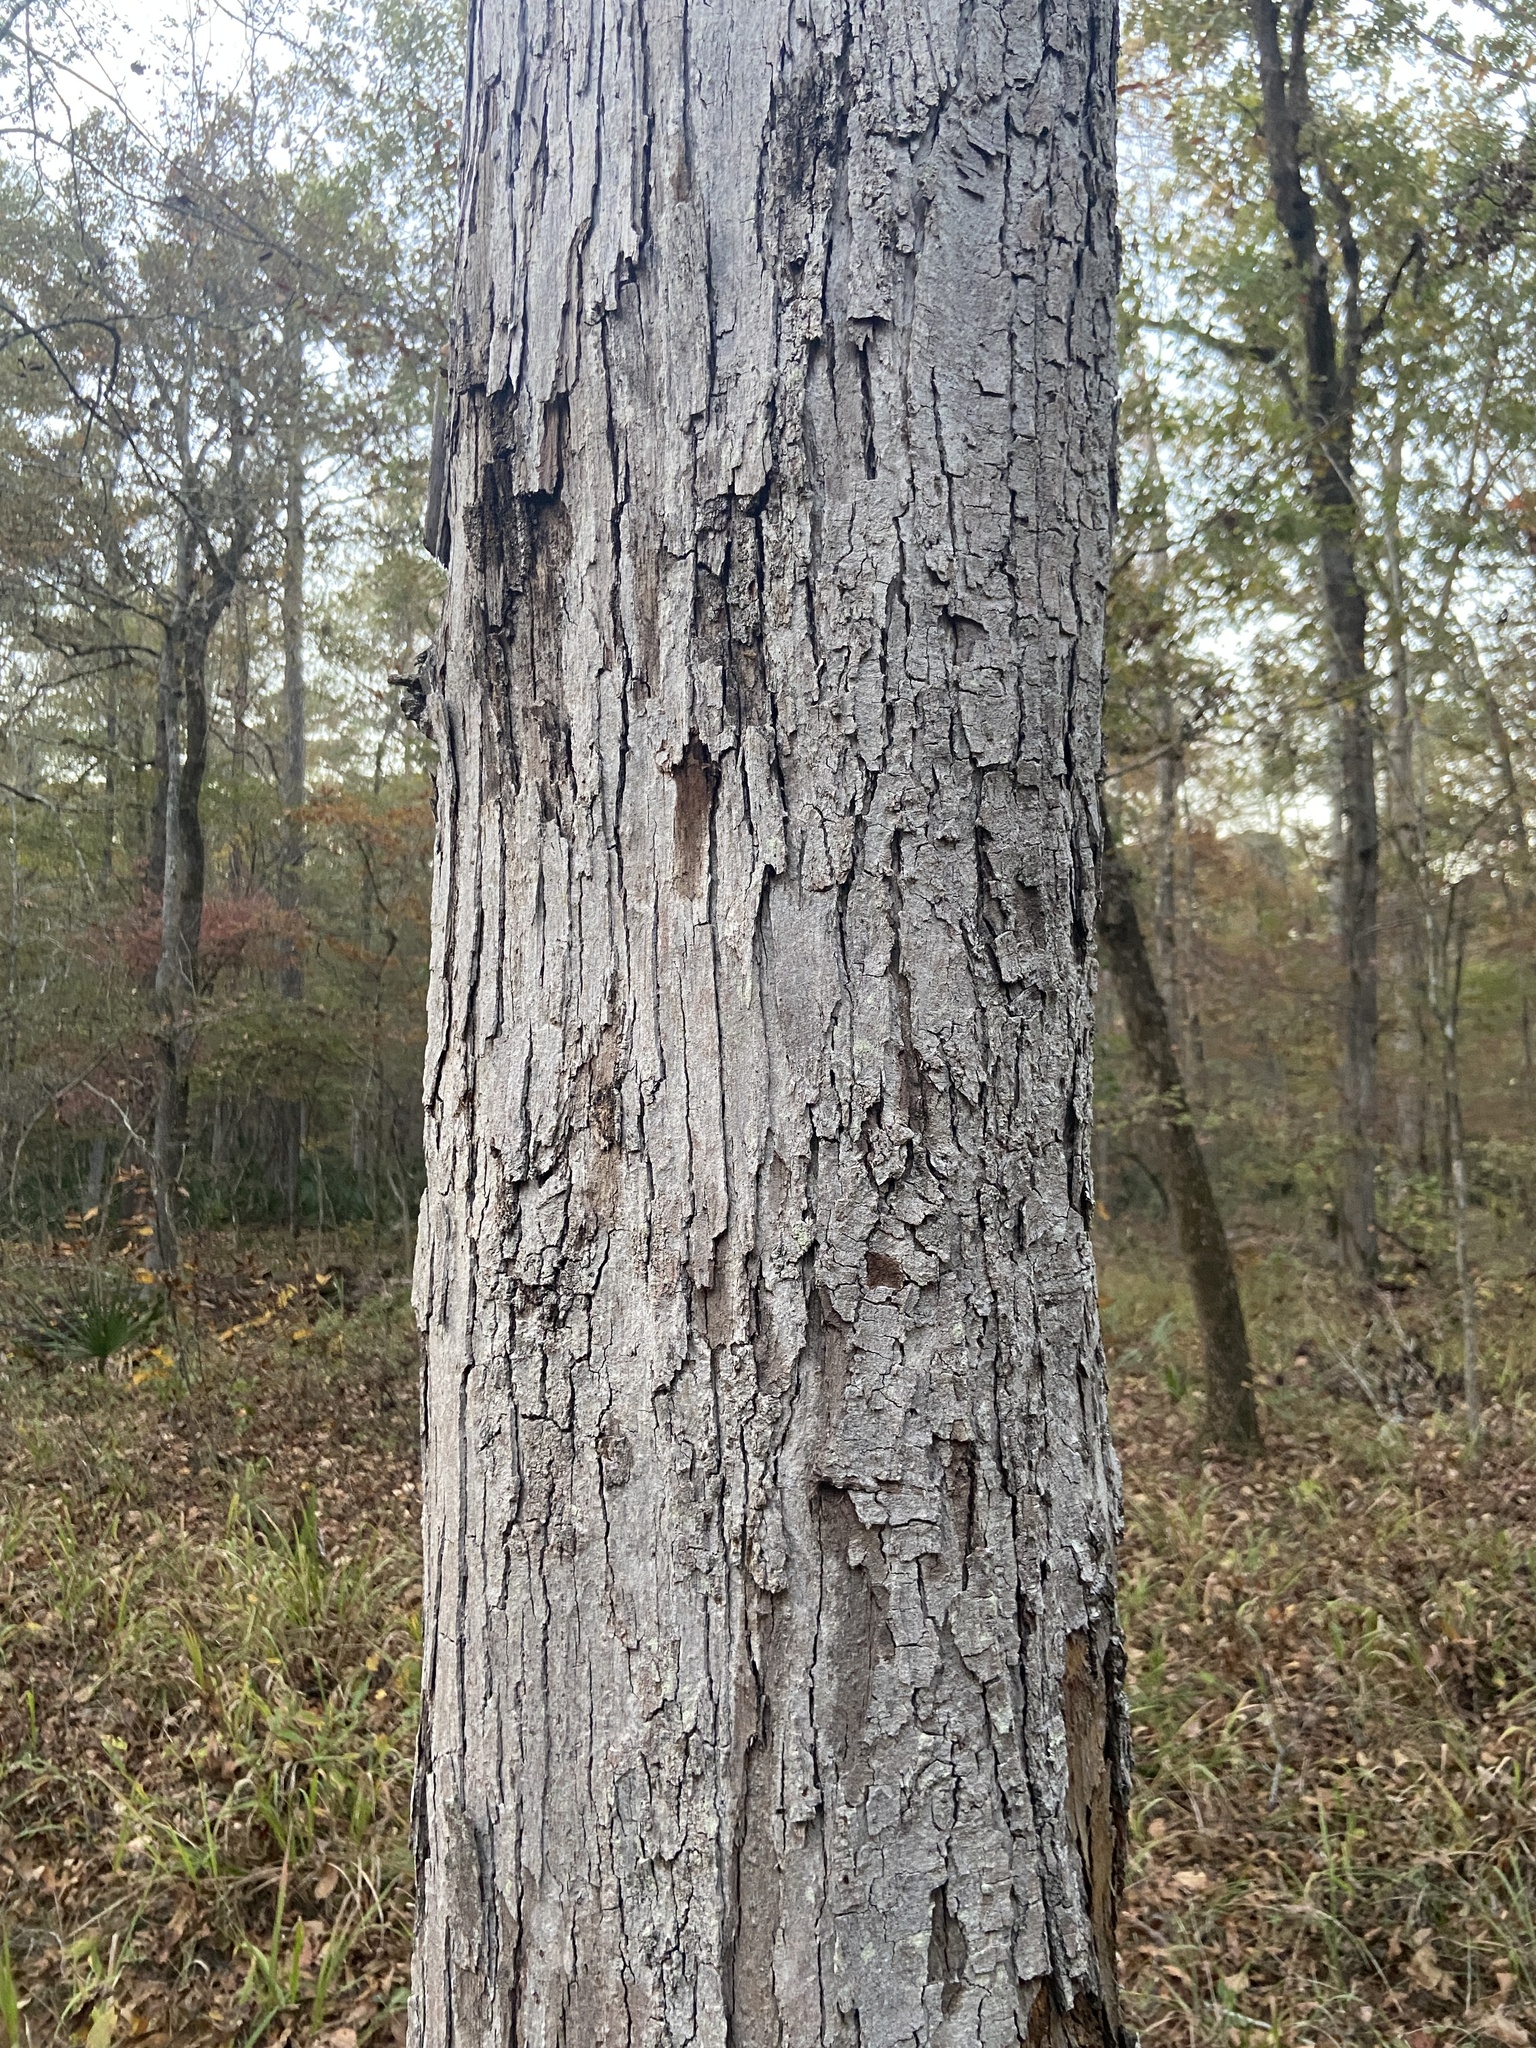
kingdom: Plantae
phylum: Tracheophyta
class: Magnoliopsida
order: Fagales
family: Fagaceae
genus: Quercus
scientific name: Quercus oglethorpensis
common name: Oglethorpe oak
